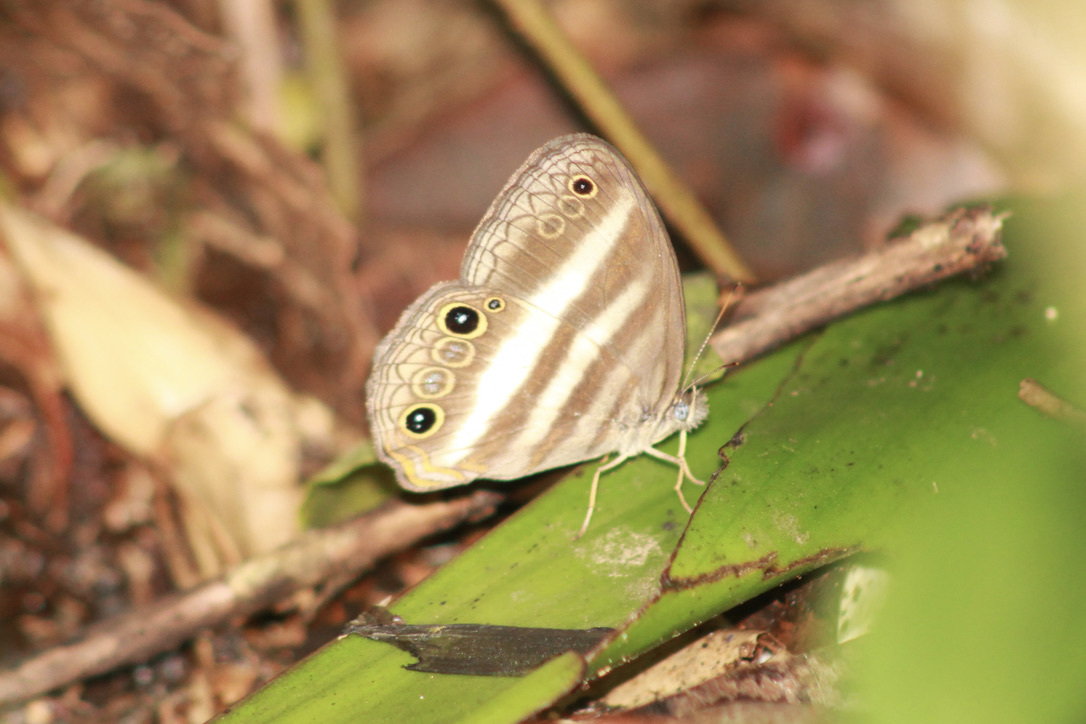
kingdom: Animalia
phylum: Arthropoda
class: Insecta
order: Lepidoptera
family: Nymphalidae
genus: Pareuptychia
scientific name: Pareuptychia hesione
